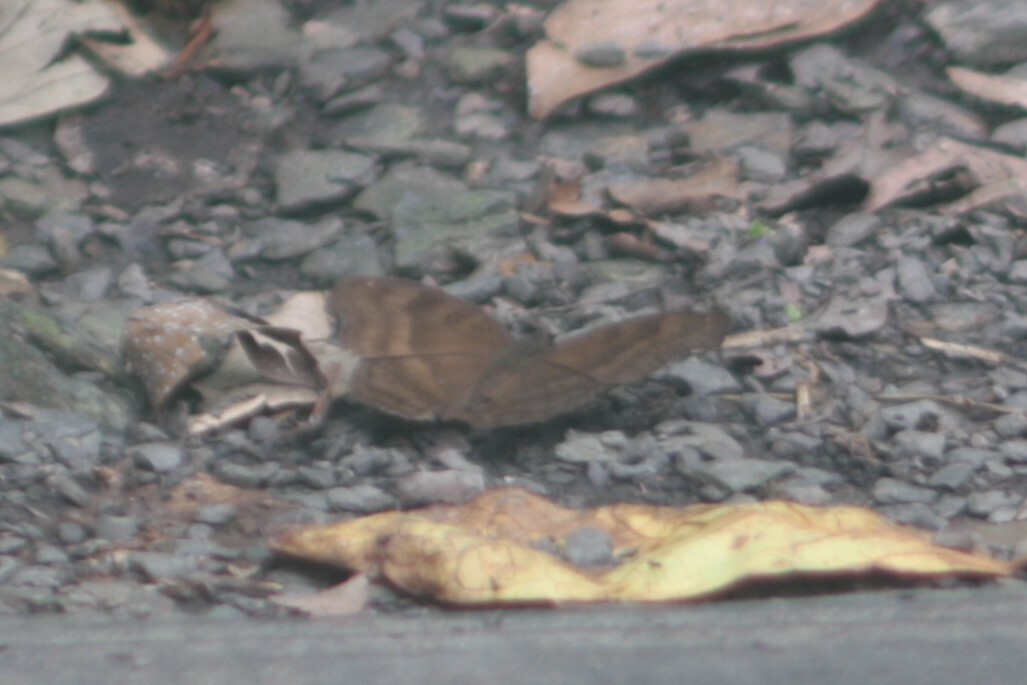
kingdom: Animalia
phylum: Arthropoda
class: Insecta
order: Lepidoptera
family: Nymphalidae
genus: Junonia
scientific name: Junonia iphita
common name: Chocolate pansy
